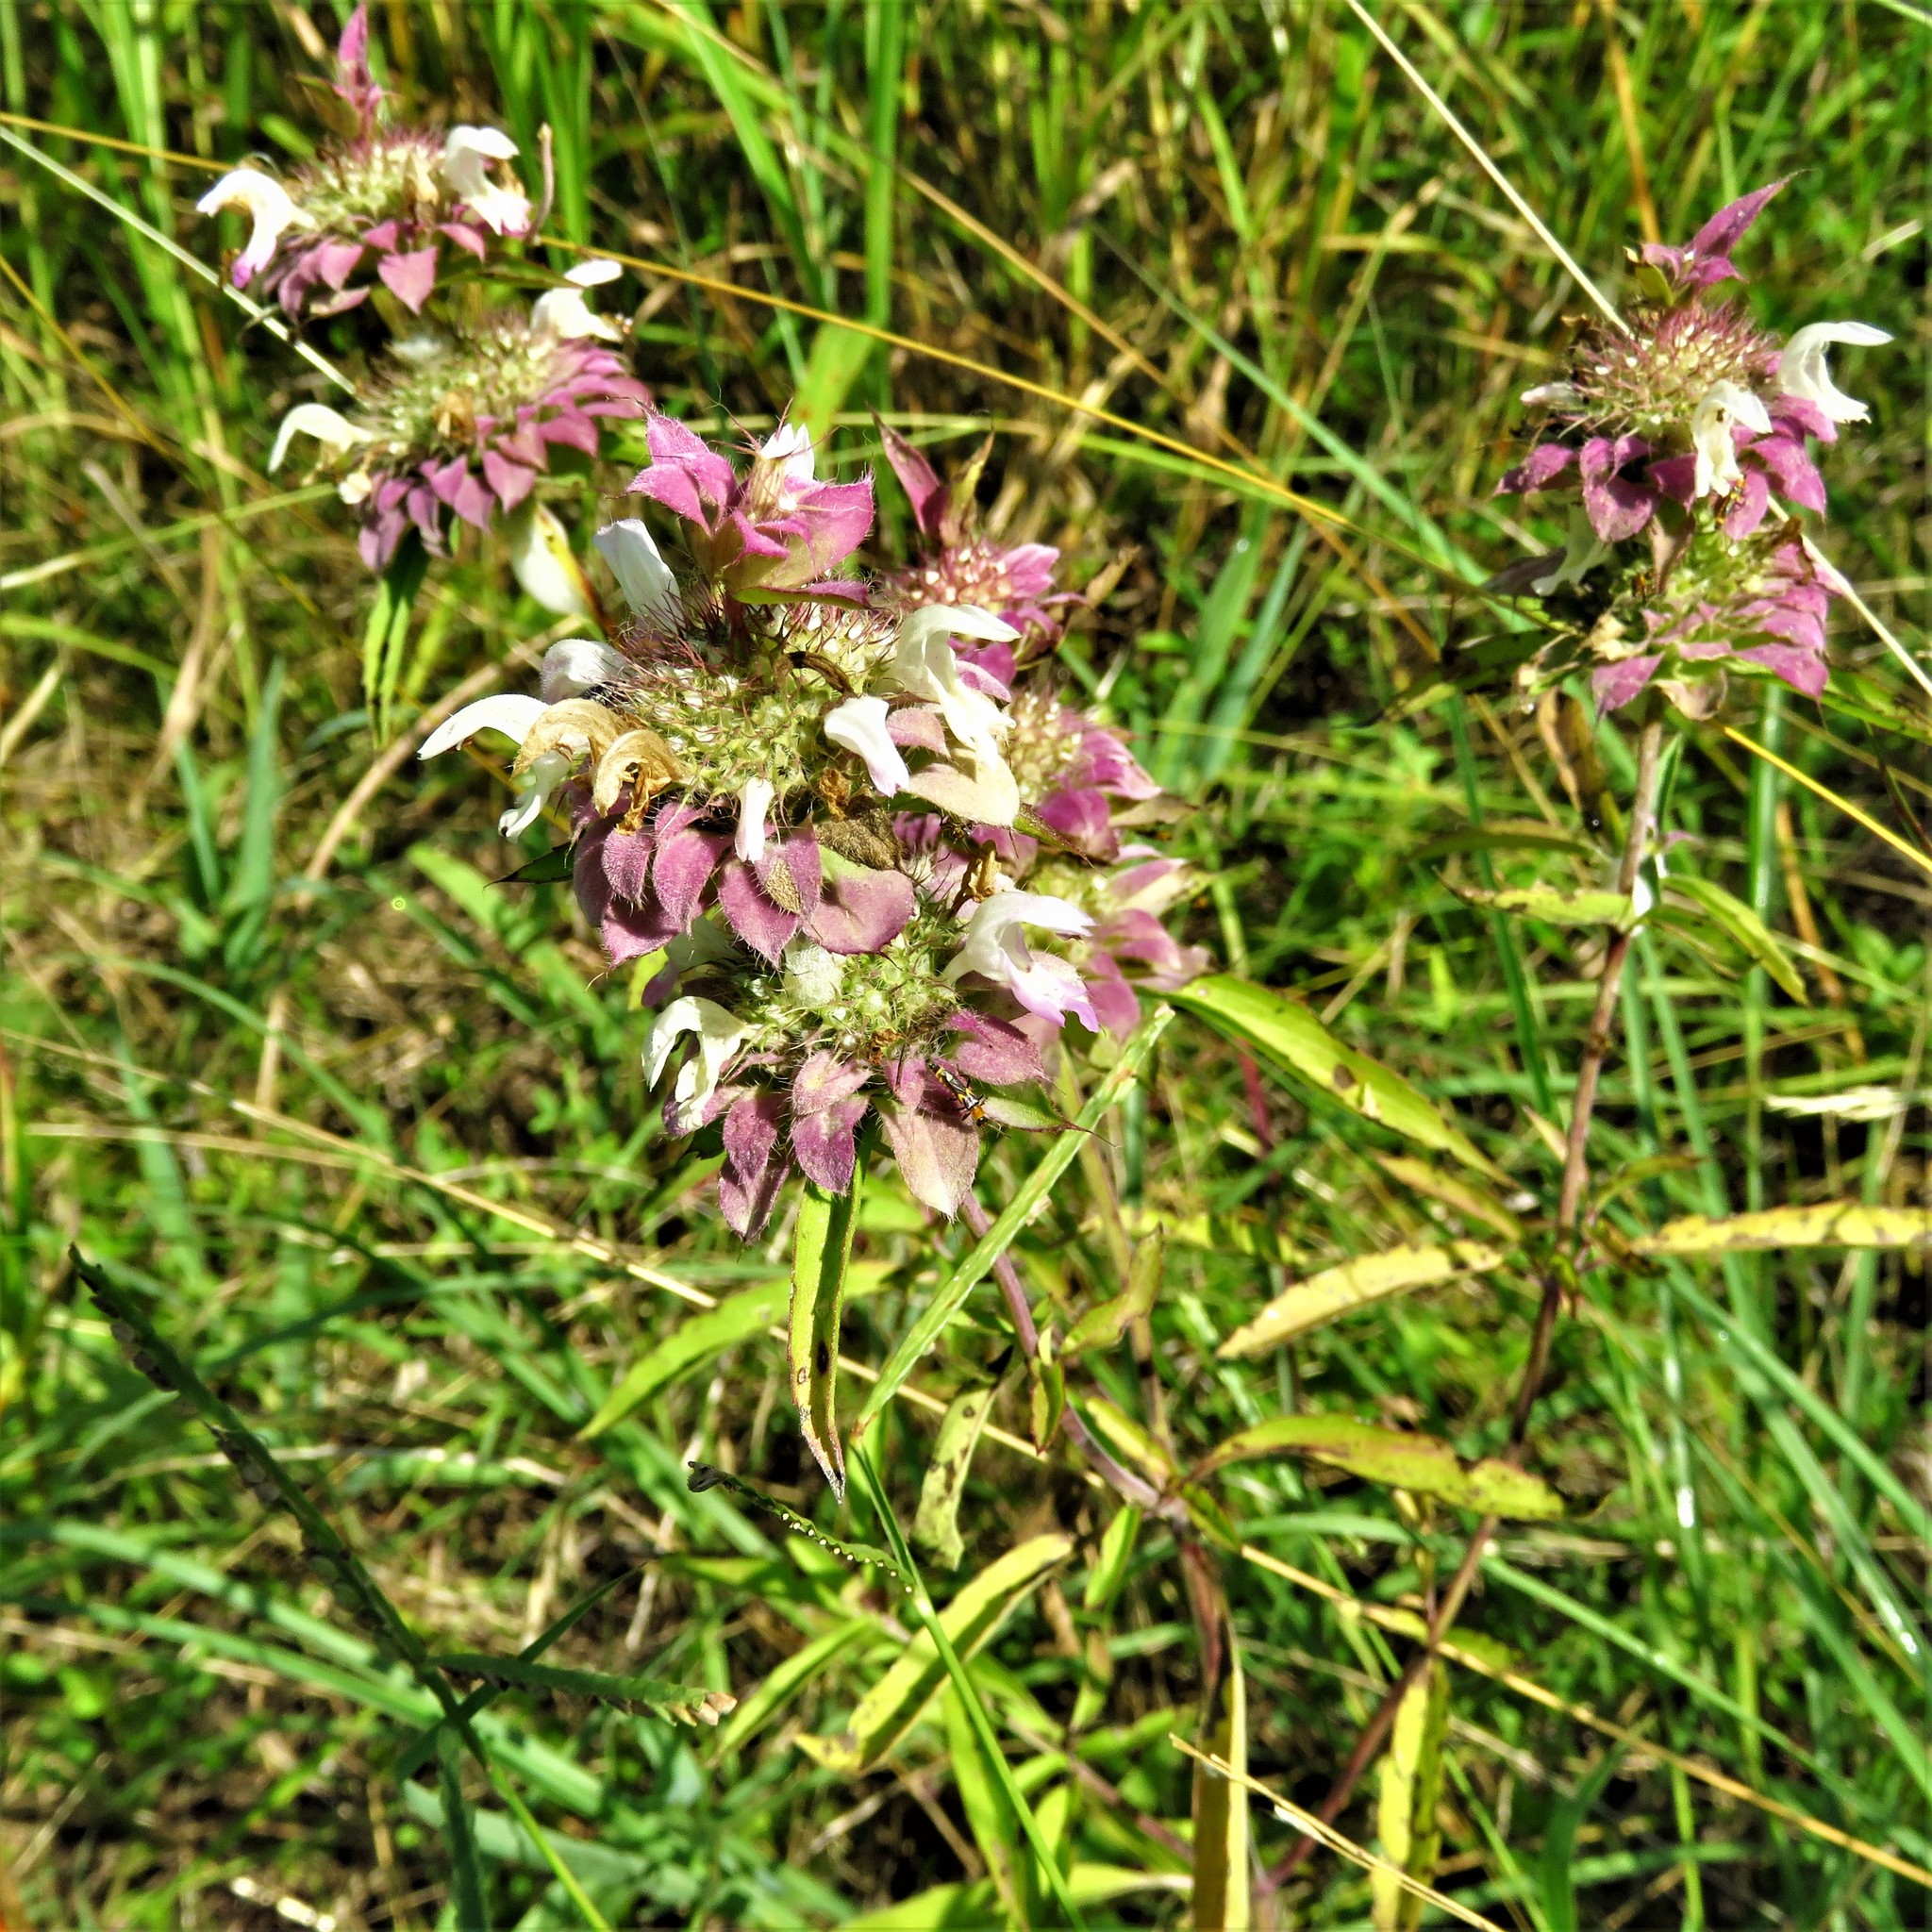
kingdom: Plantae
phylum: Tracheophyta
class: Magnoliopsida
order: Lamiales
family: Lamiaceae
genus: Monarda
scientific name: Monarda citriodora
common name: Lemon beebalm
